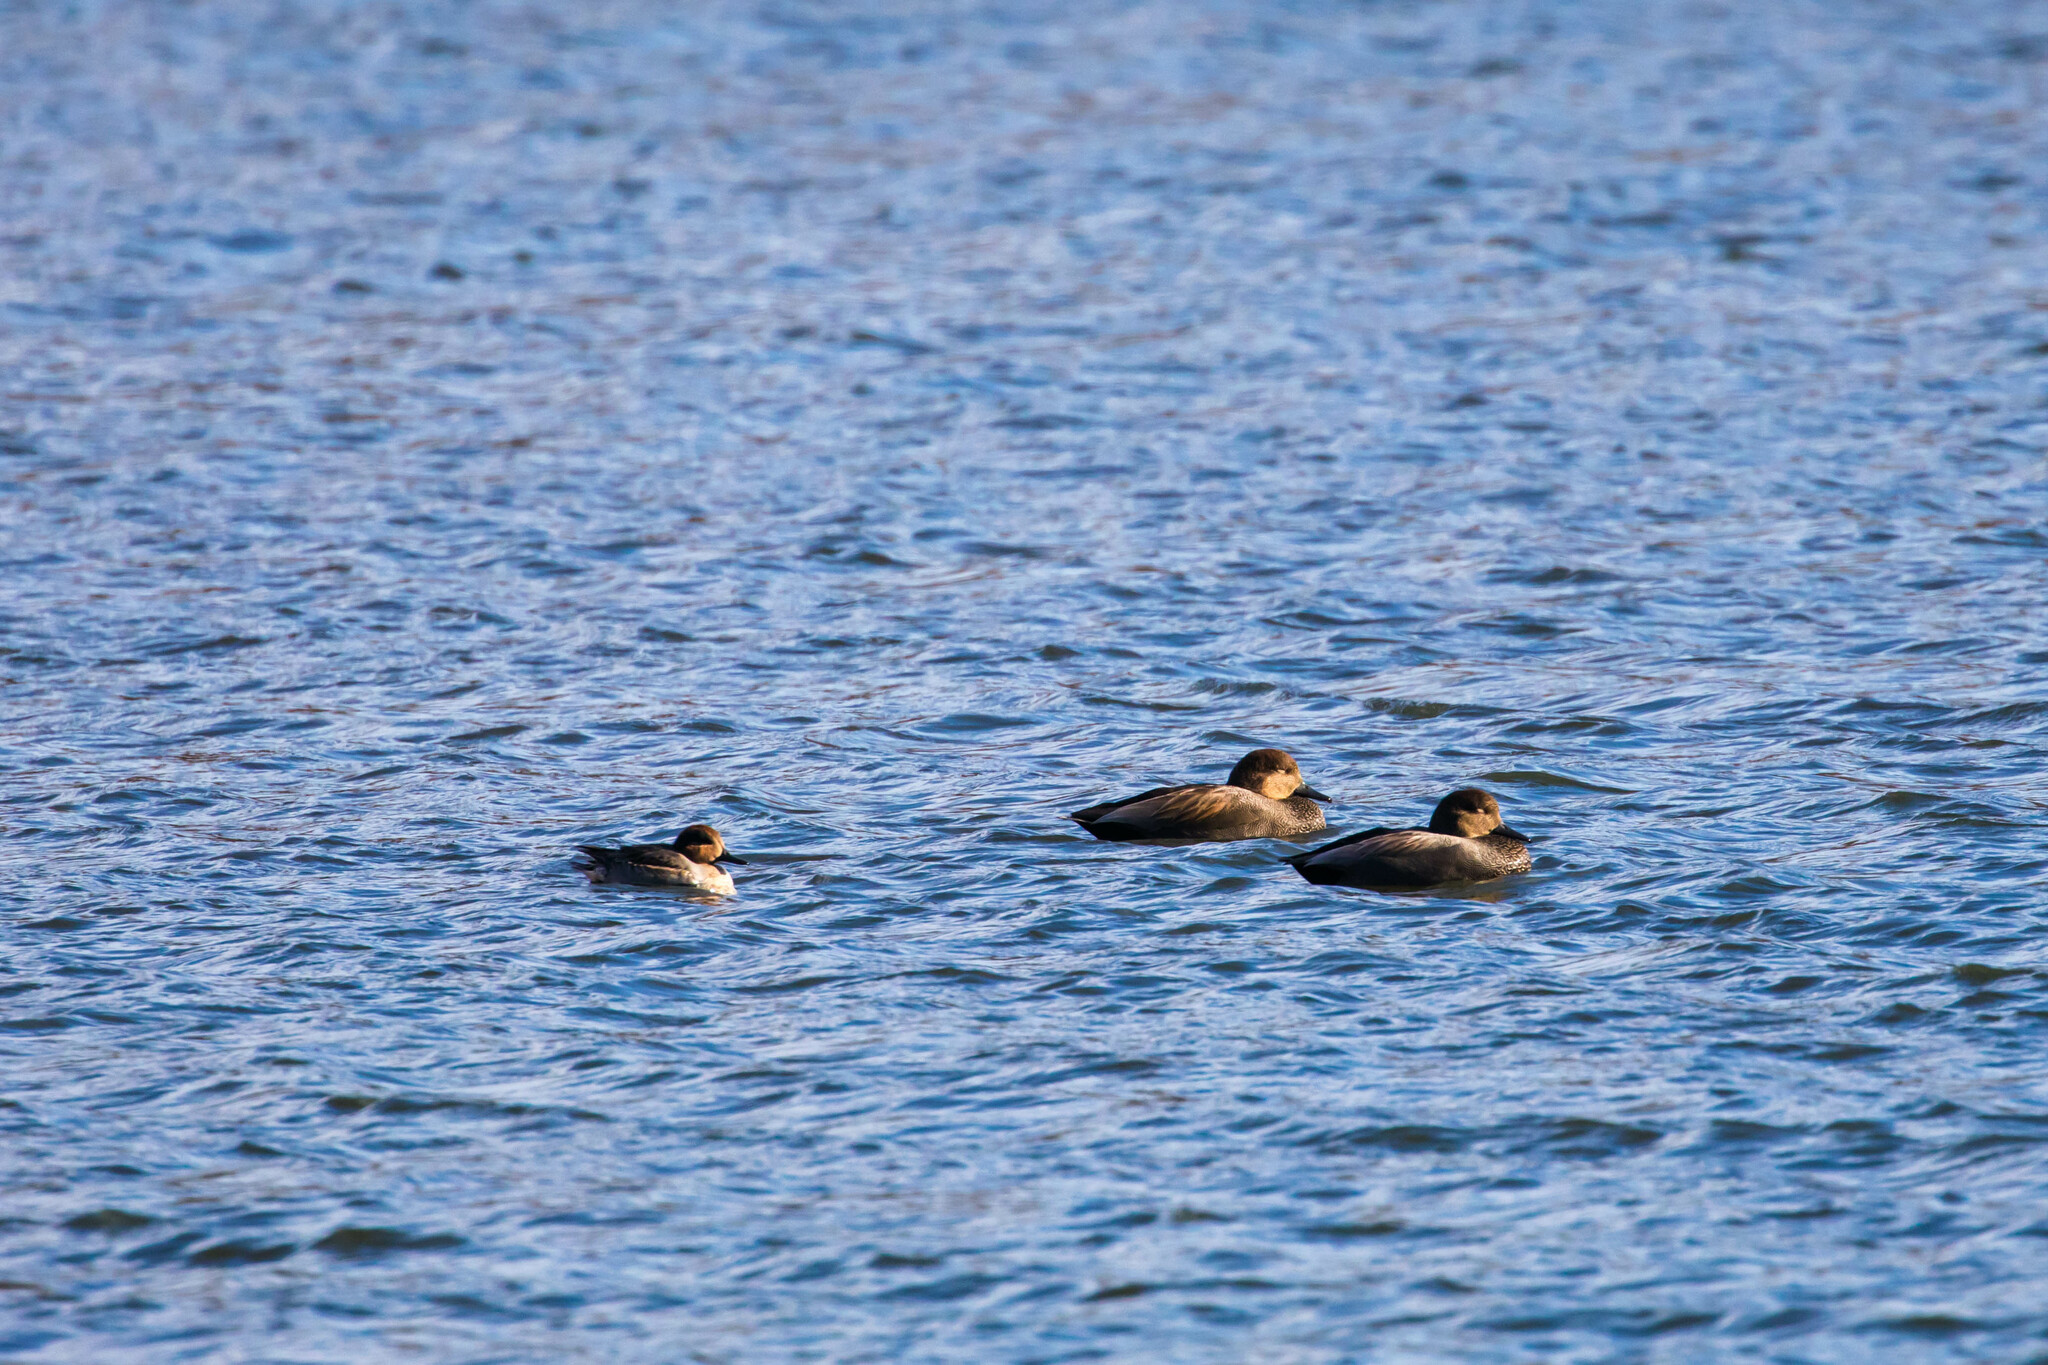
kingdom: Animalia
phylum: Chordata
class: Aves
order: Anseriformes
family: Anatidae
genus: Mareca
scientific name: Mareca strepera
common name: Gadwall
